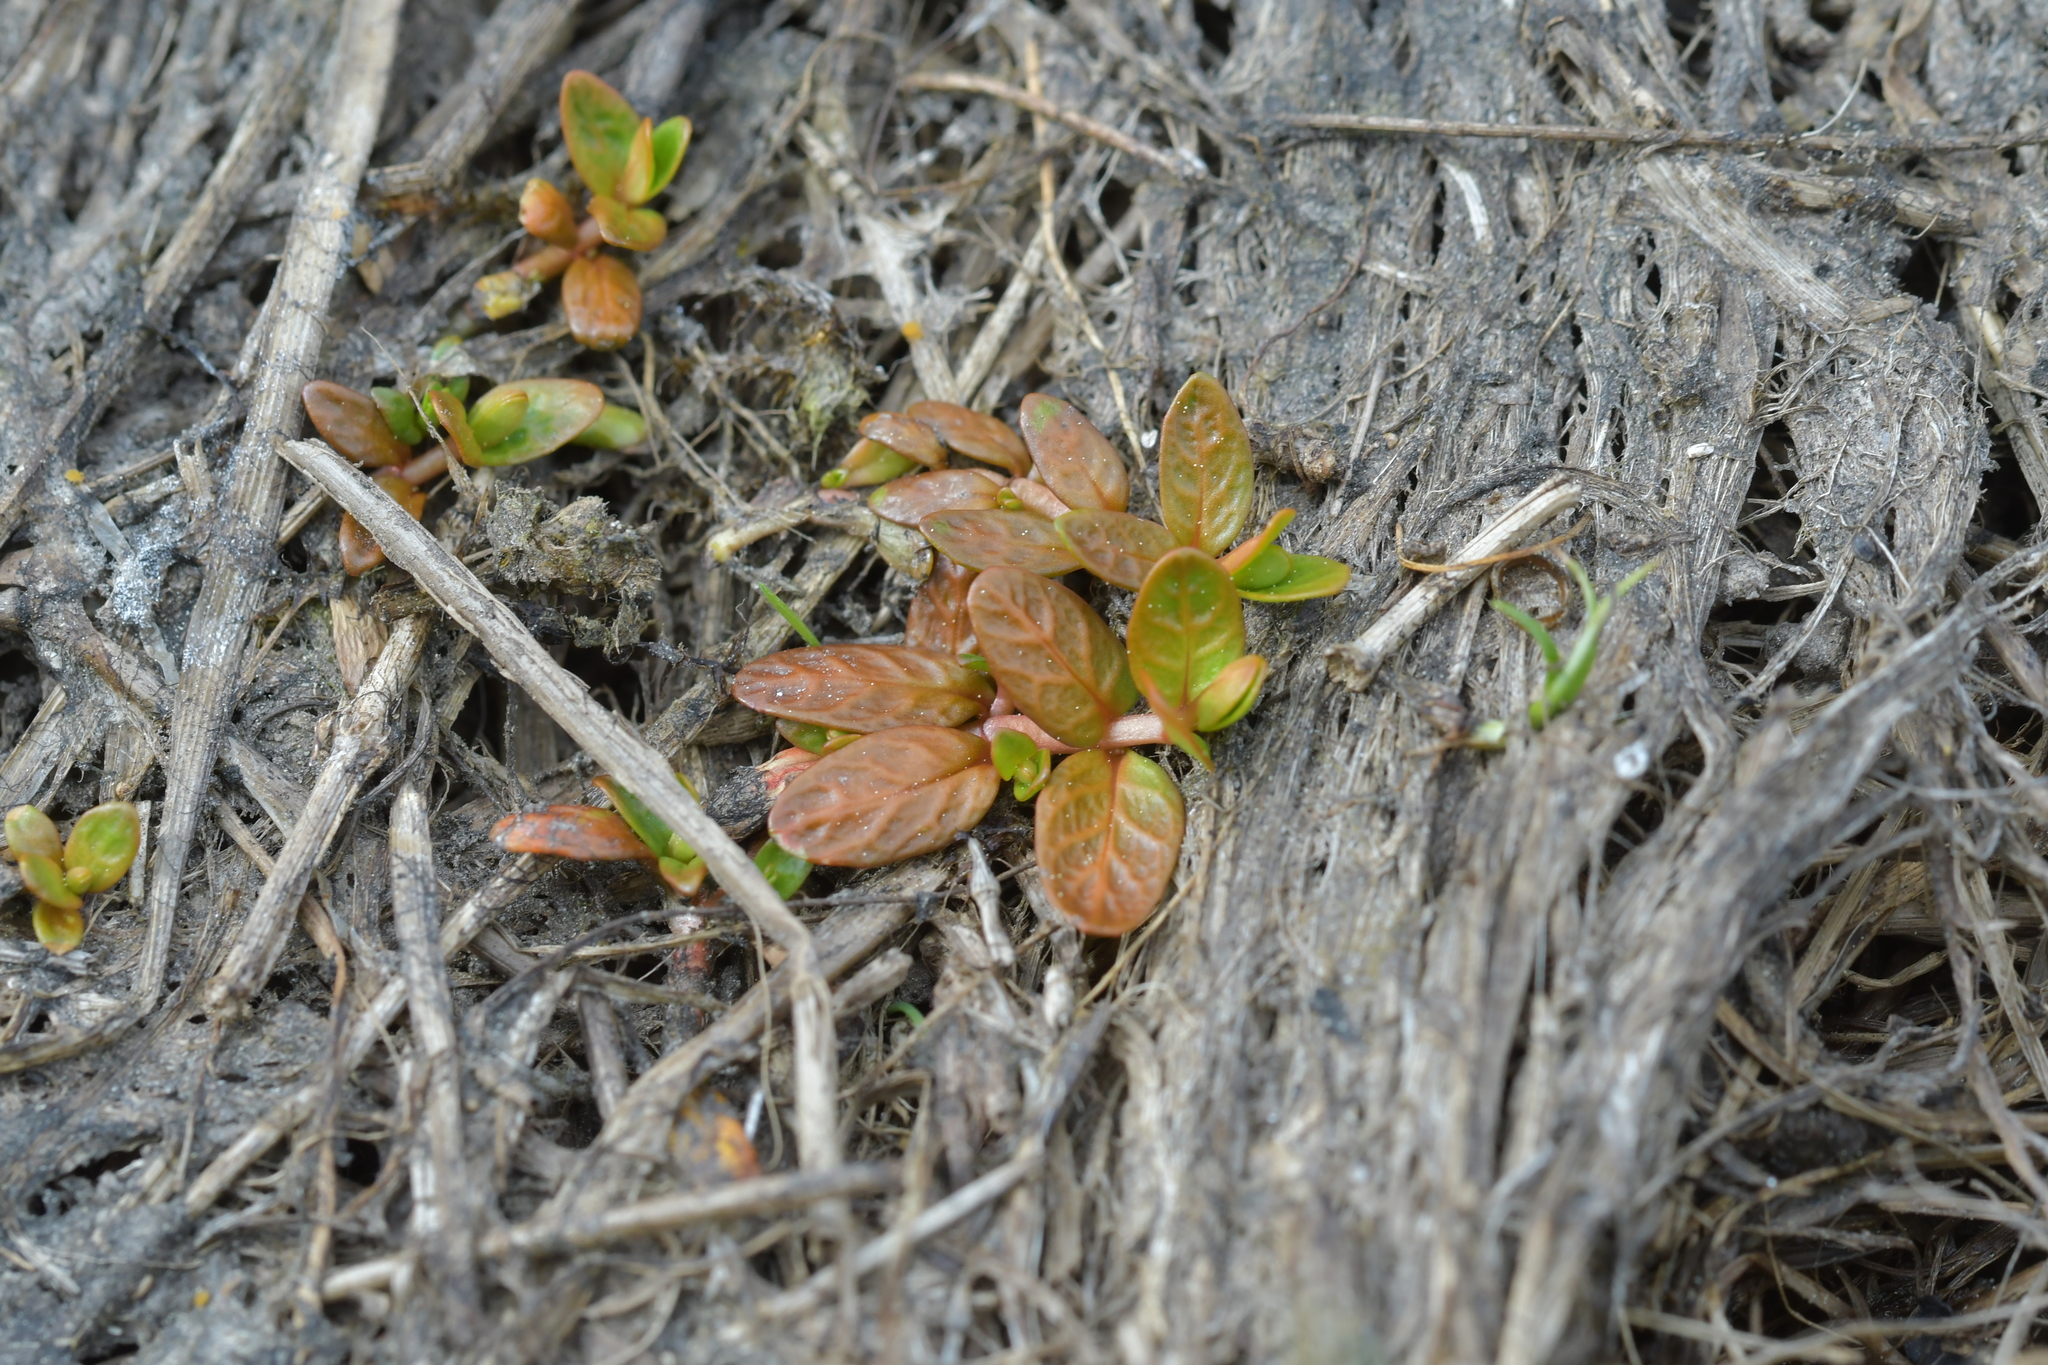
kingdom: Plantae
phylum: Tracheophyta
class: Magnoliopsida
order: Myrtales
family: Onagraceae
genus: Epilobium
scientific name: Epilobium angustum
